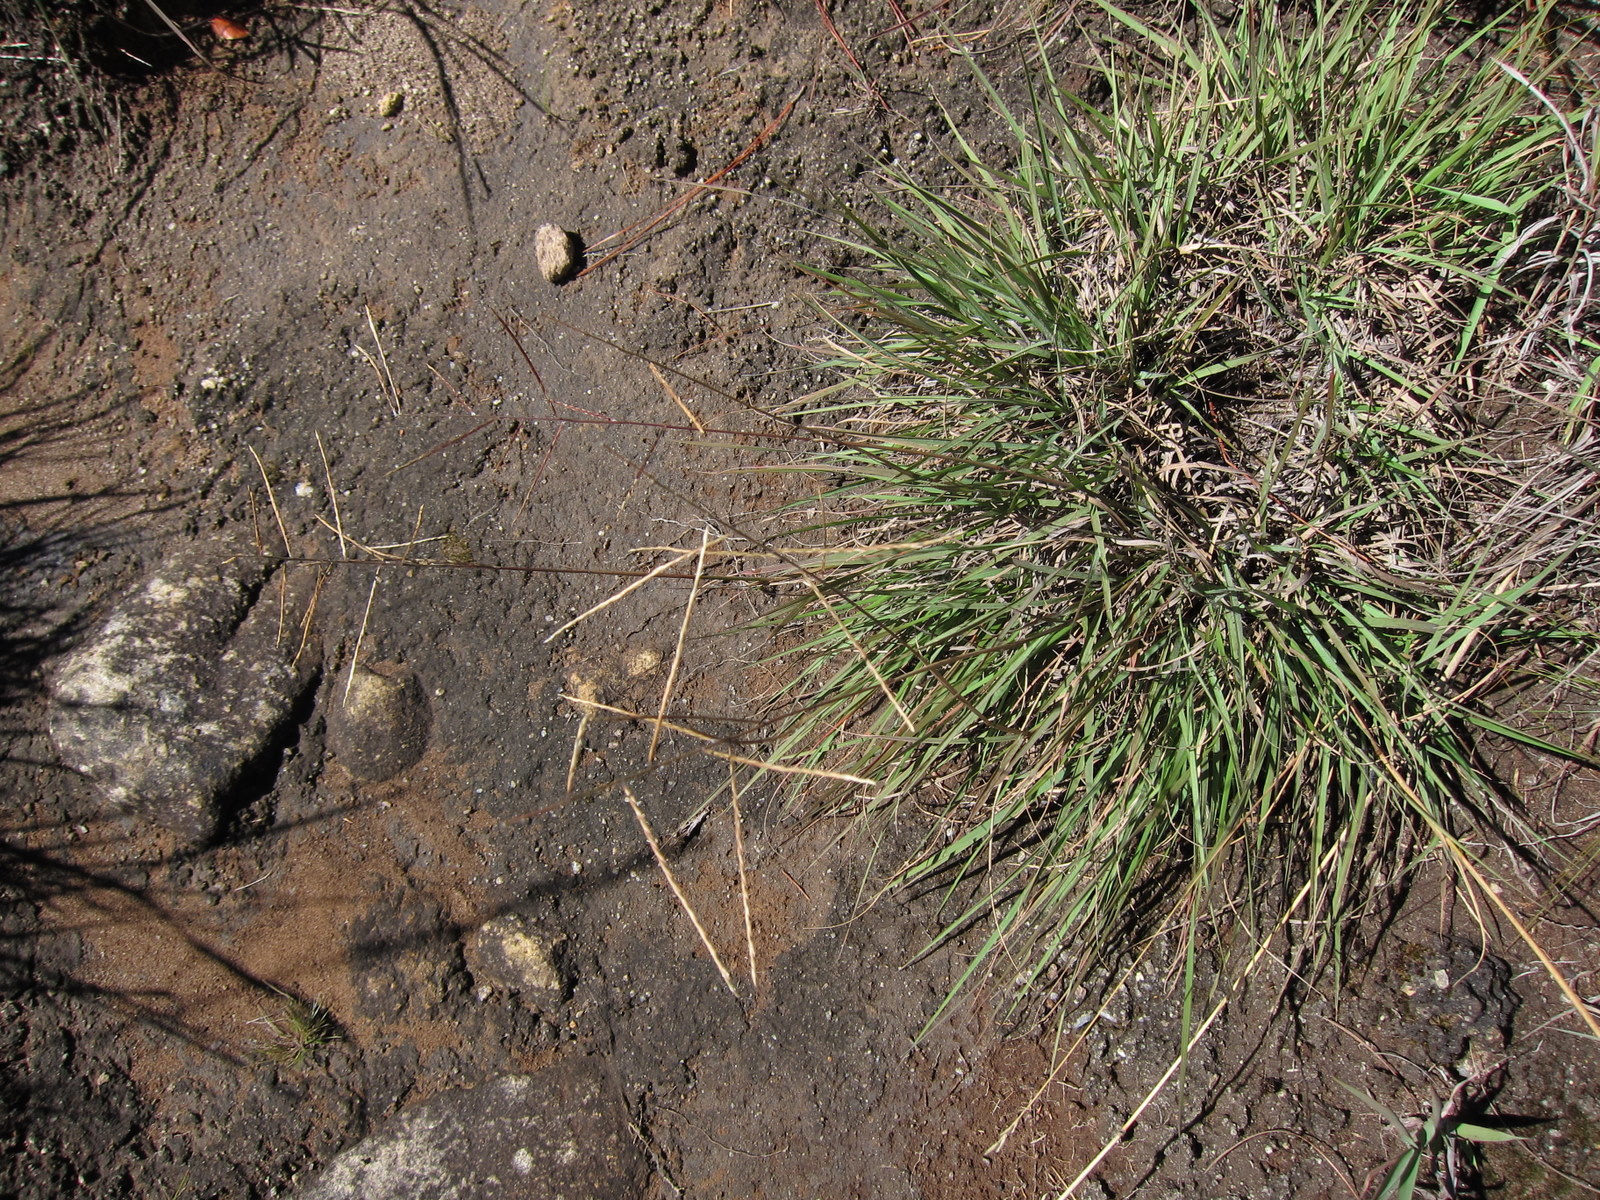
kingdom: Plantae
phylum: Tracheophyta
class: Liliopsida
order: Poales
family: Poaceae
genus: Craspedorhachis
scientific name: Craspedorhachis africana
